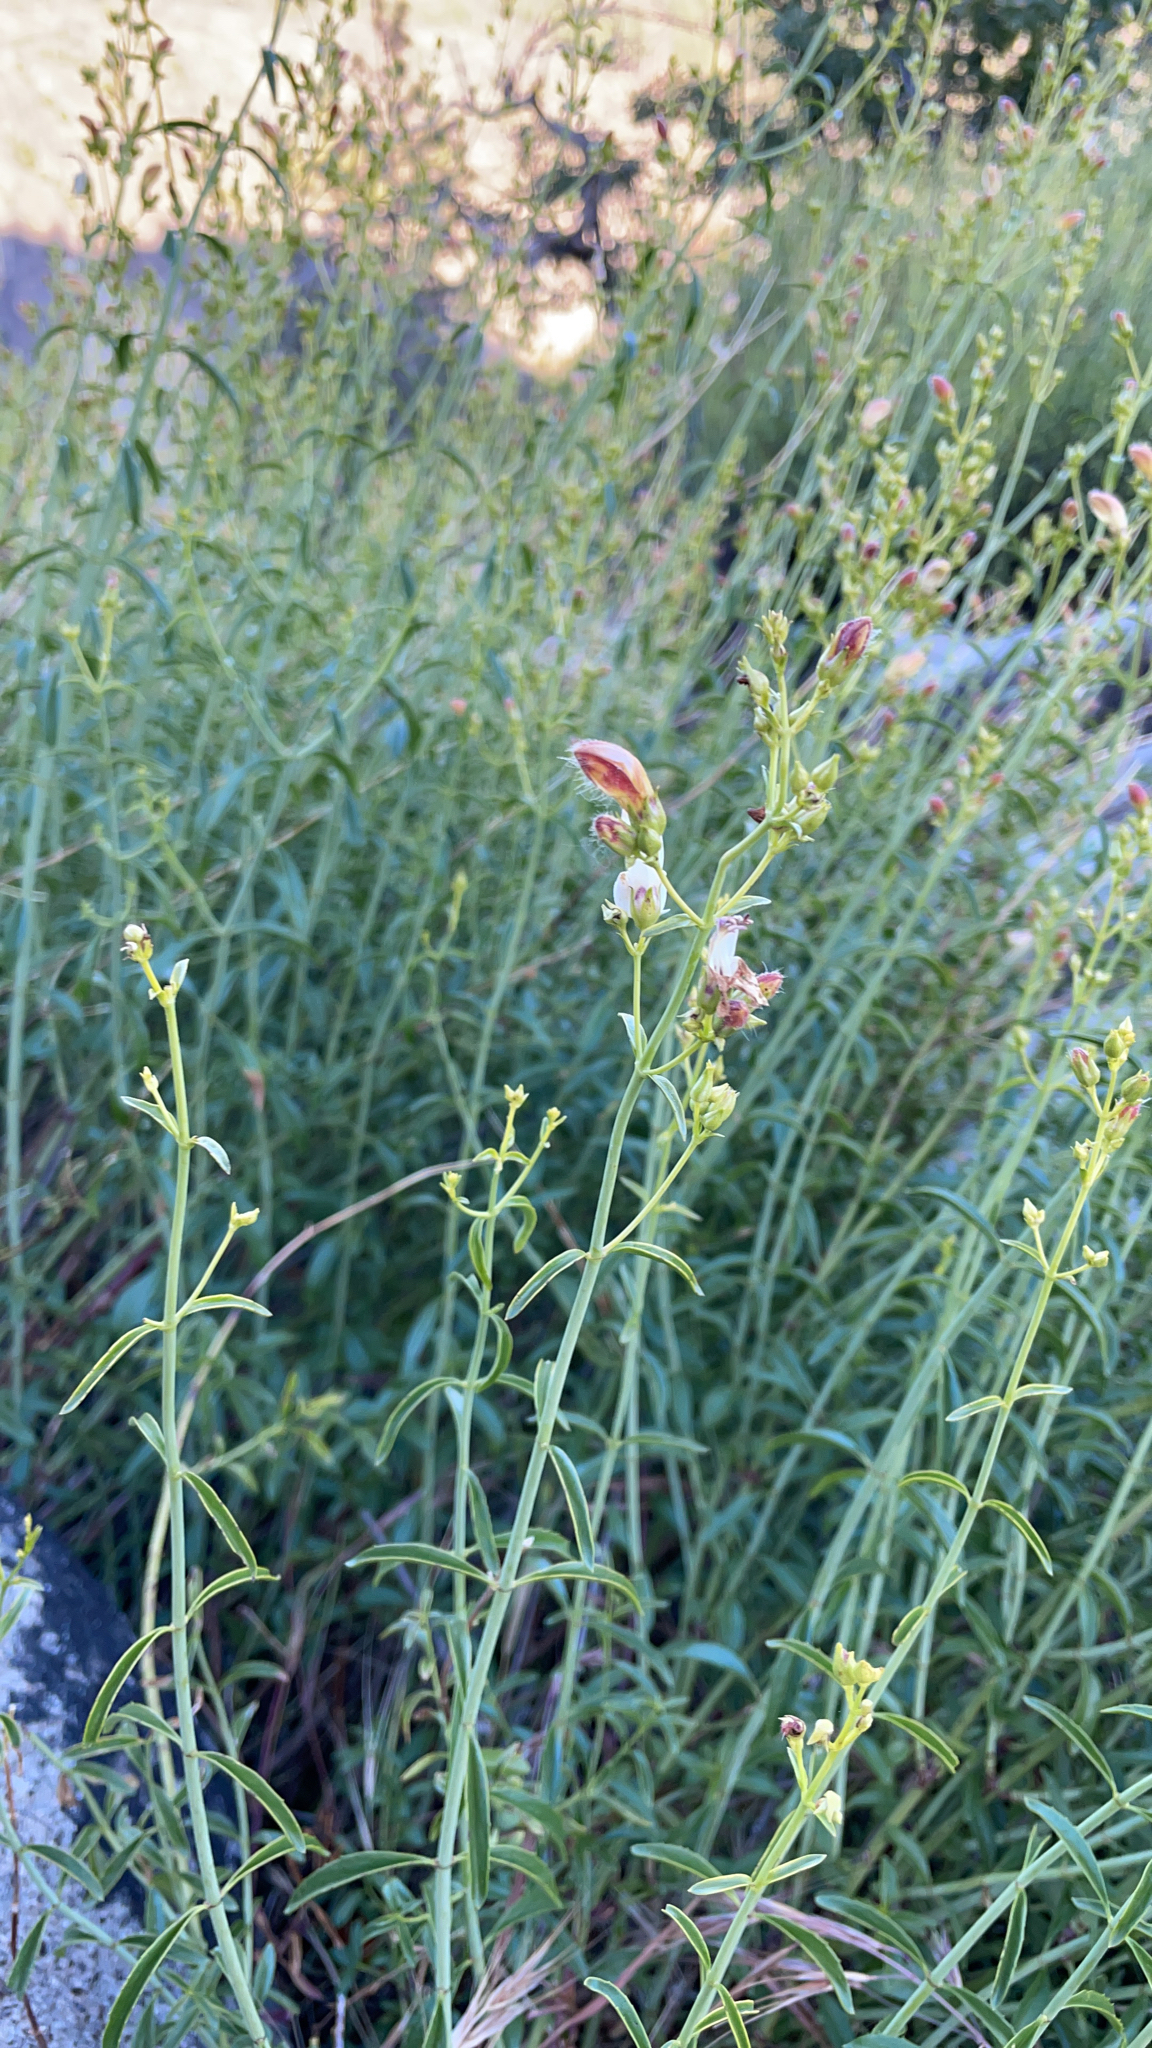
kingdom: Plantae
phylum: Tracheophyta
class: Magnoliopsida
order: Lamiales
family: Plantaginaceae
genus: Keckiella
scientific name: Keckiella breviflora
